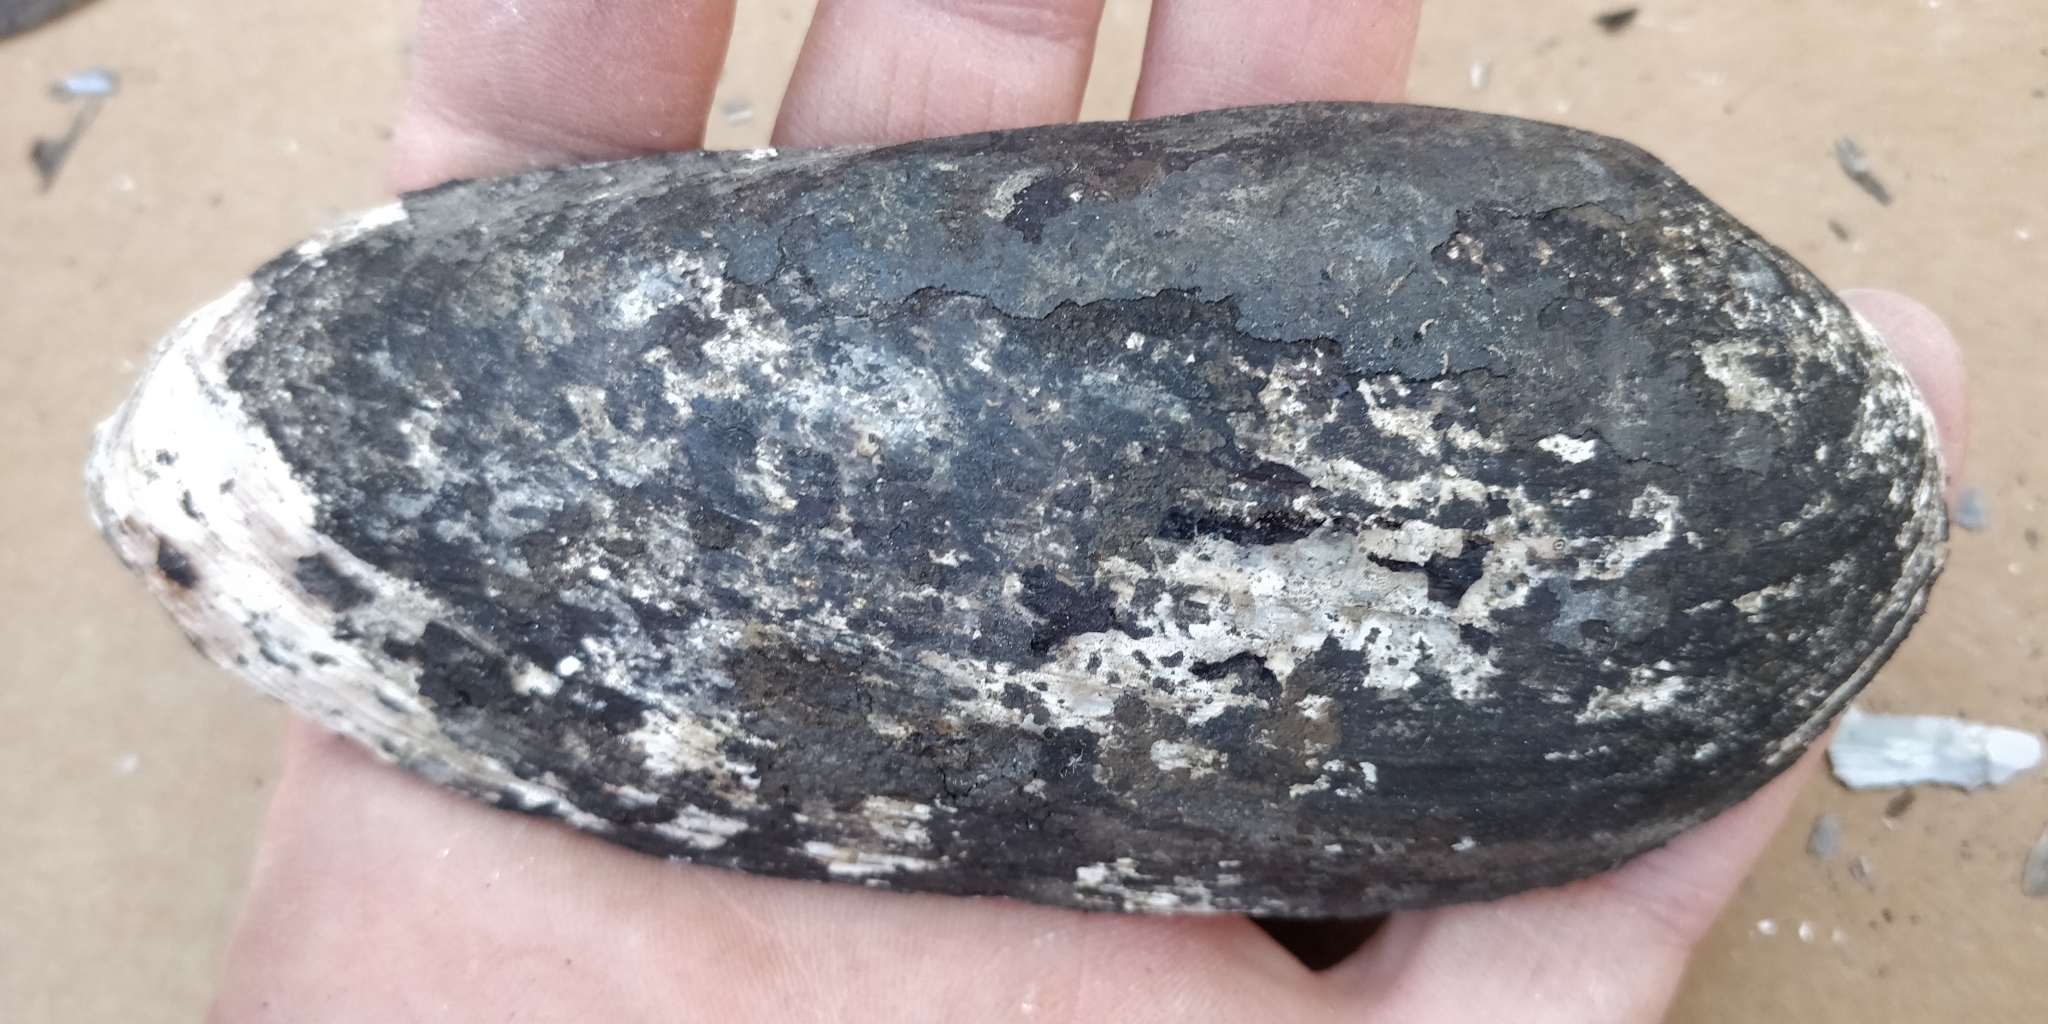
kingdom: Animalia
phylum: Mollusca
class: Bivalvia
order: Unionida
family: Unionidae
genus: Ligumia
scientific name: Ligumia recta
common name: Black sandshell
